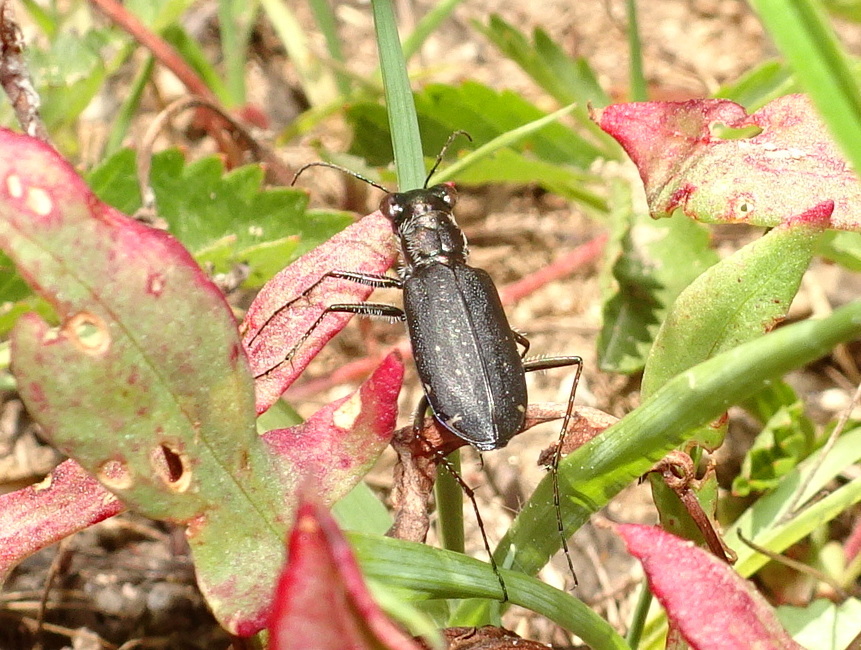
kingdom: Animalia
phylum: Arthropoda
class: Insecta
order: Coleoptera
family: Carabidae
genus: Cicindela
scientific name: Cicindela punctulata
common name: Punctured tiger beetle
